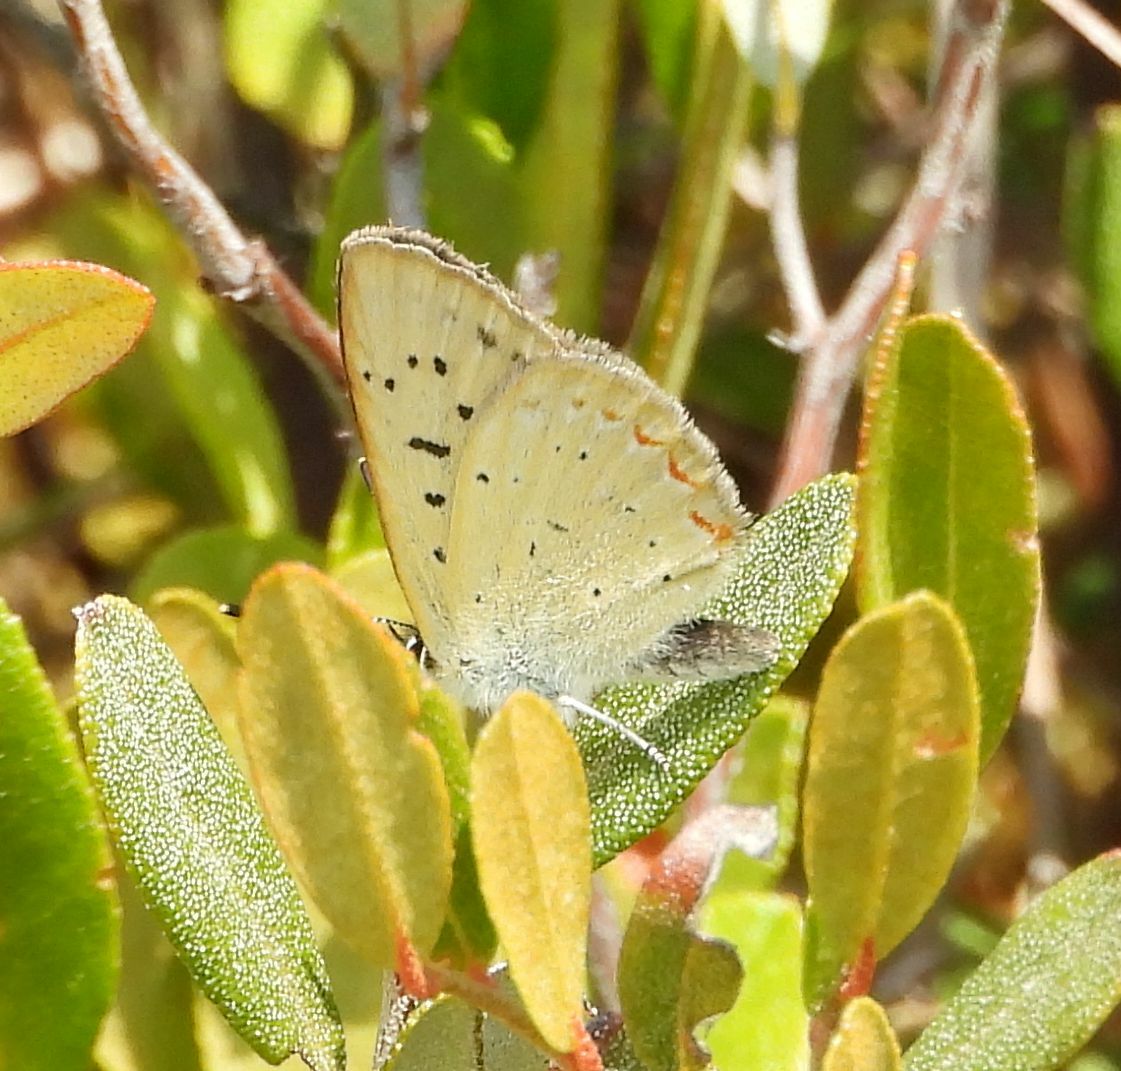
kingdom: Animalia
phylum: Arthropoda
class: Insecta
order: Lepidoptera
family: Lycaenidae
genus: Tharsalea
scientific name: Tharsalea epixanthe
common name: Bog copper
